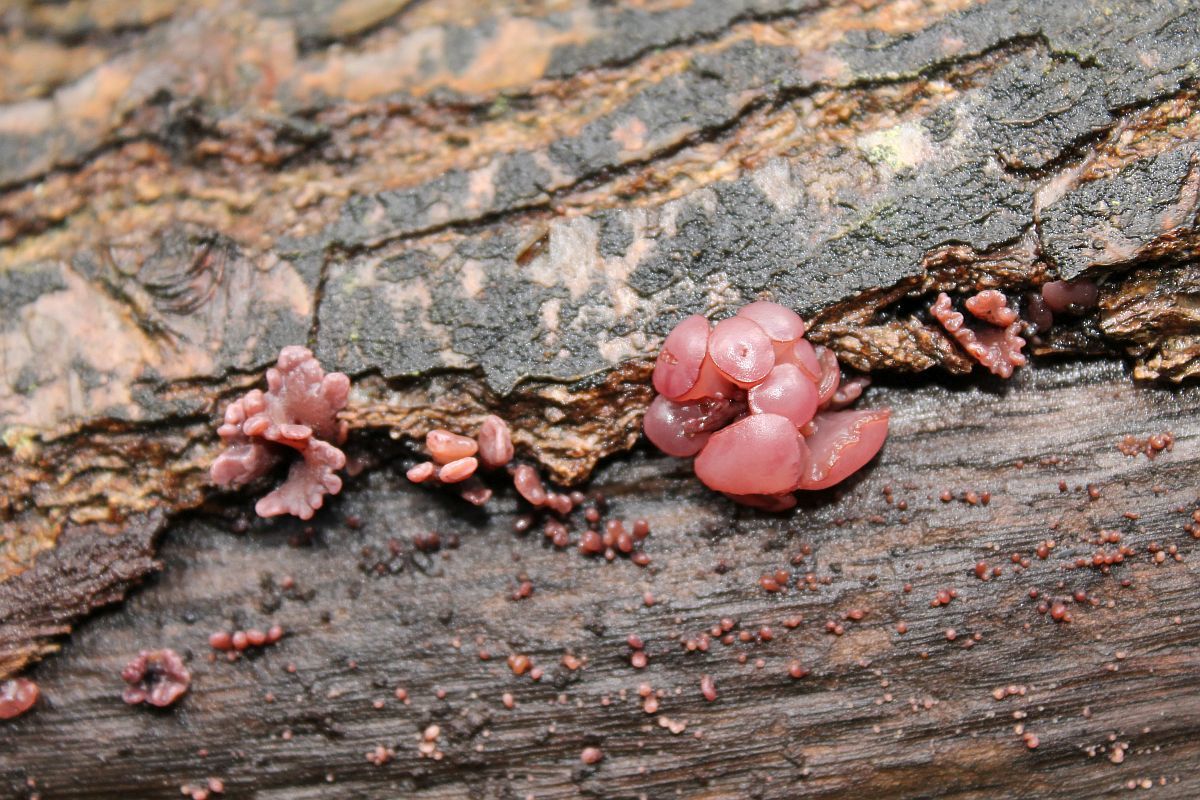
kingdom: Fungi
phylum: Ascomycota
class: Leotiomycetes
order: Helotiales
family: Gelatinodiscaceae
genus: Ascocoryne
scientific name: Ascocoryne sarcoides
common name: Purple jellydisc
